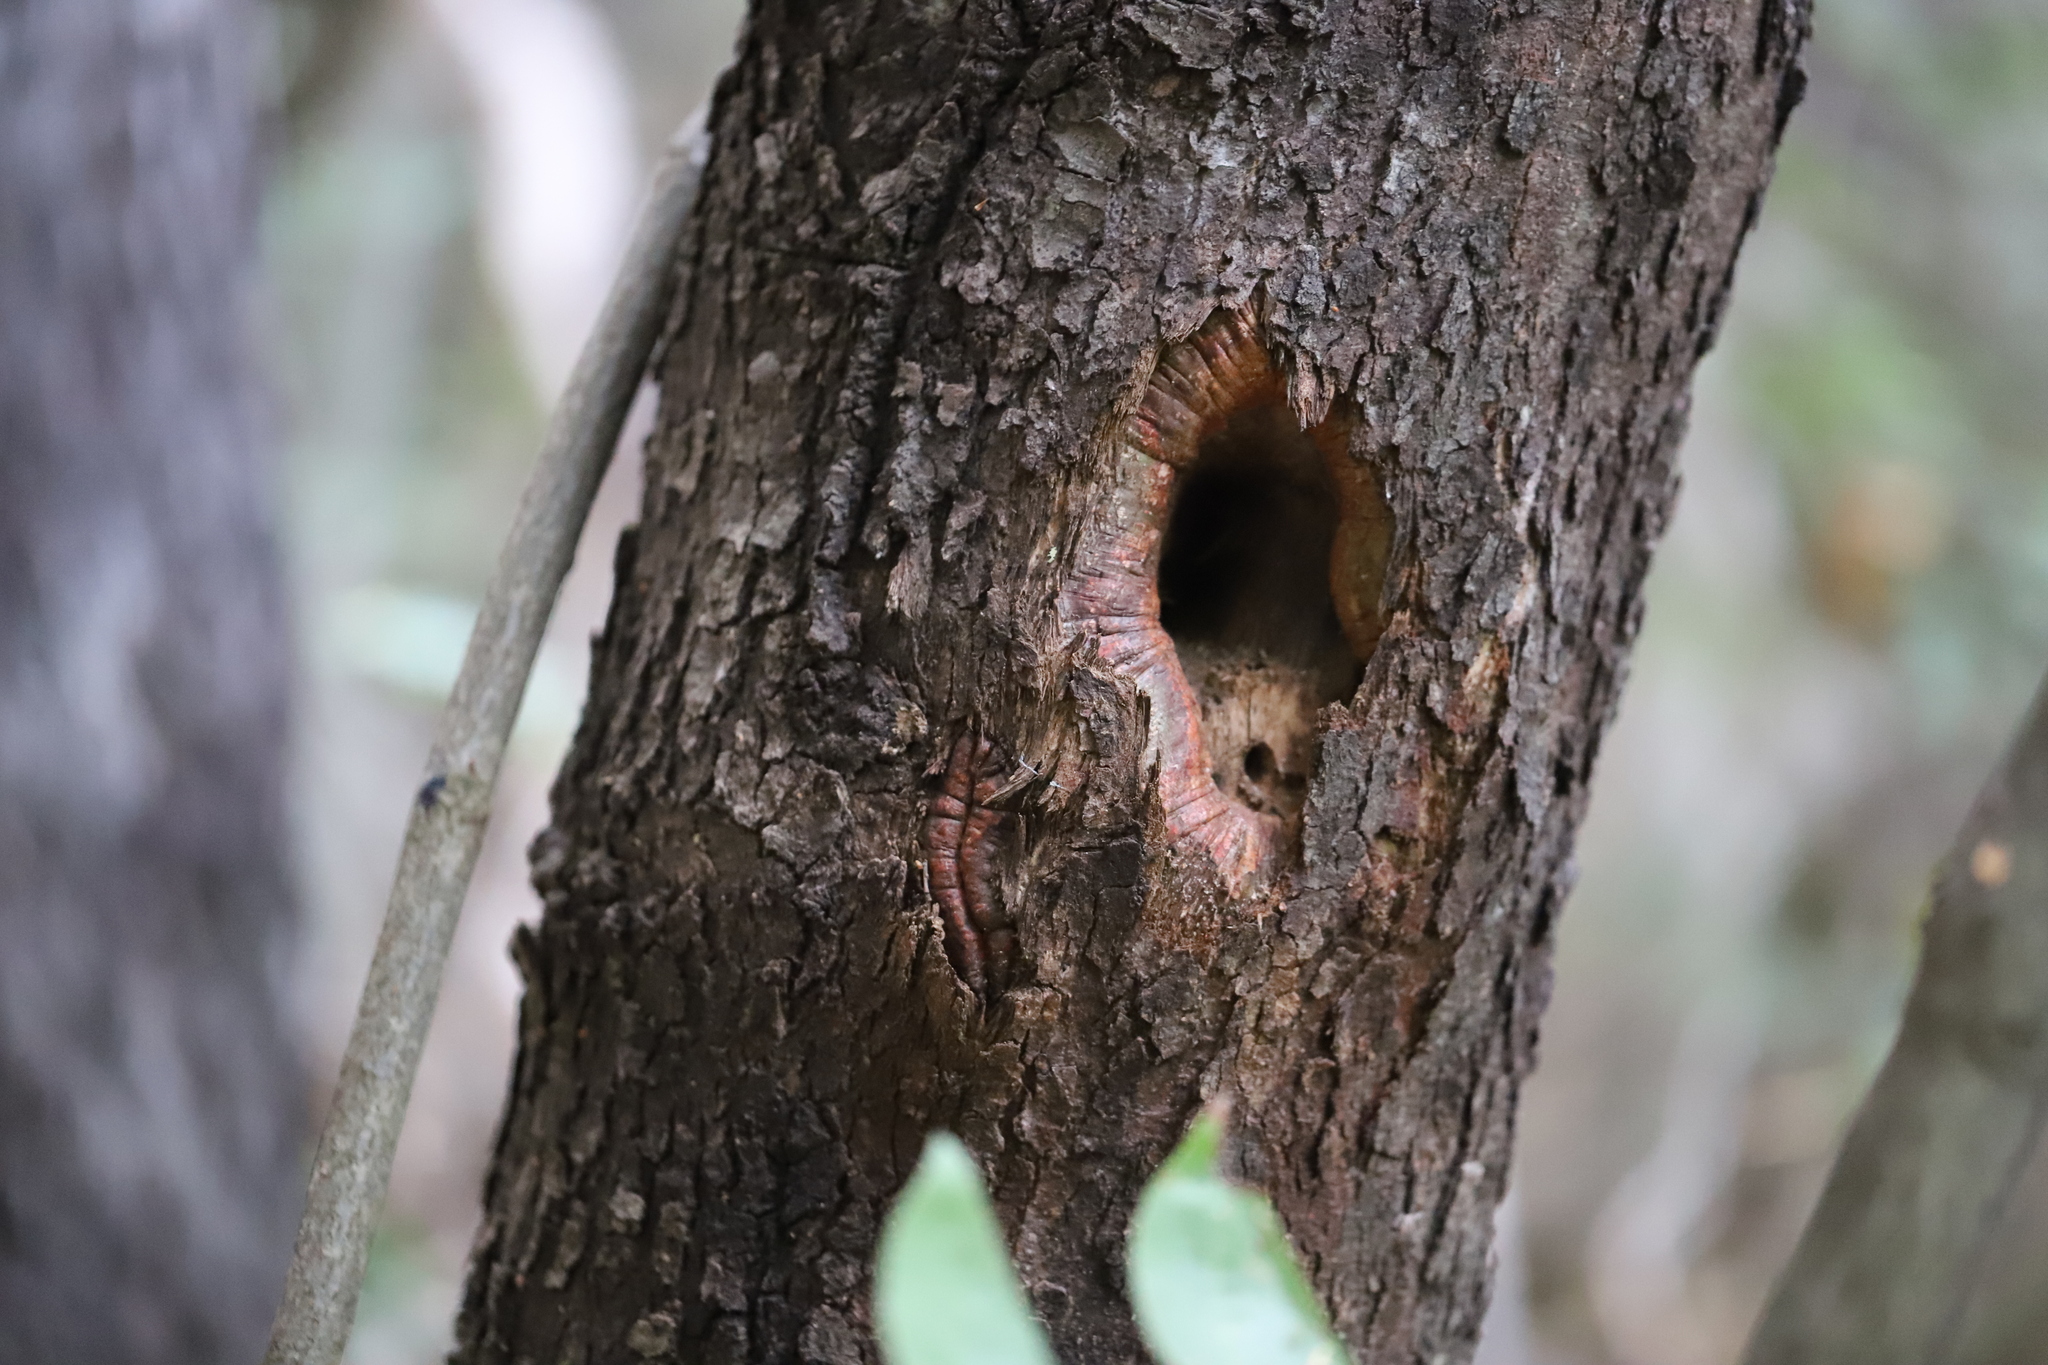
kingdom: Plantae
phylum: Tracheophyta
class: Magnoliopsida
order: Laurales
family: Lauraceae
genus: Cryptocarya
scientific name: Cryptocarya alba
